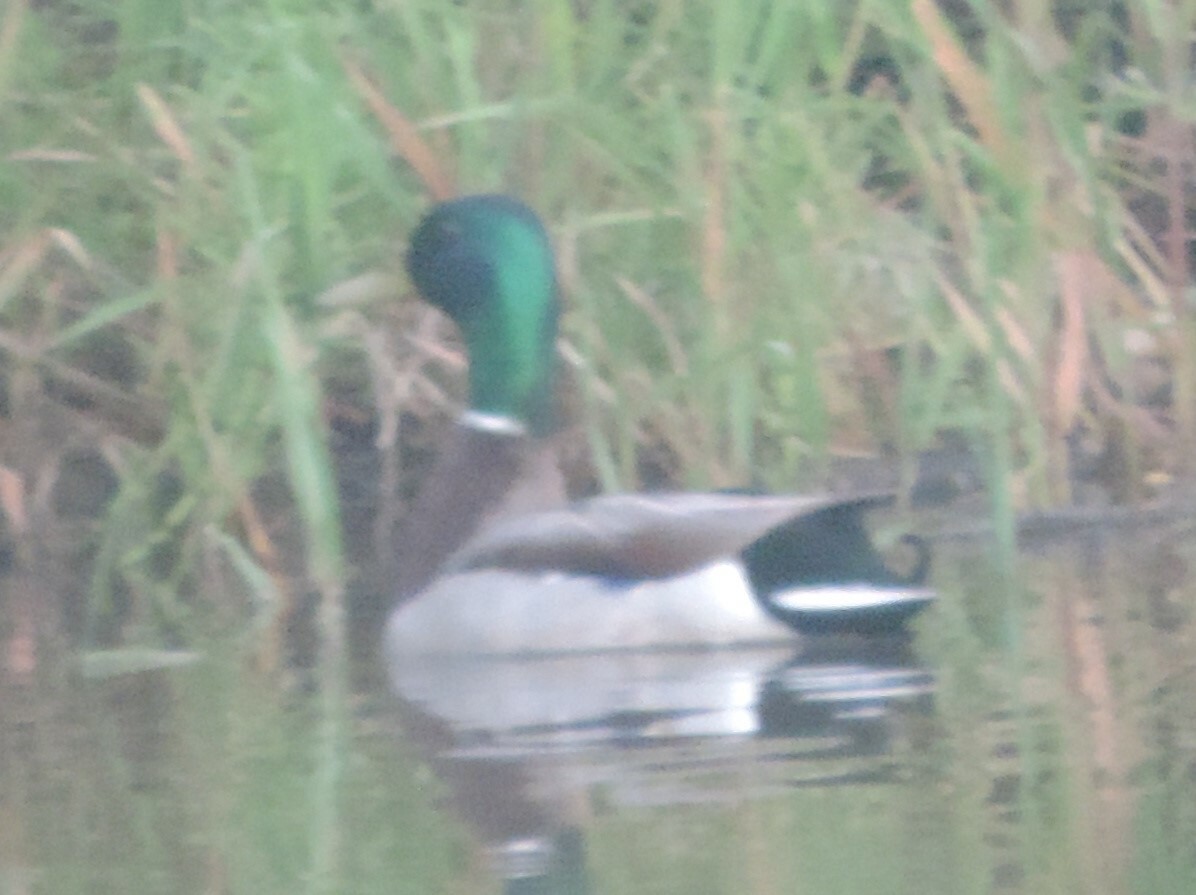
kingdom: Animalia
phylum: Chordata
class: Aves
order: Anseriformes
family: Anatidae
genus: Anas
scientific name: Anas platyrhynchos
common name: Mallard
